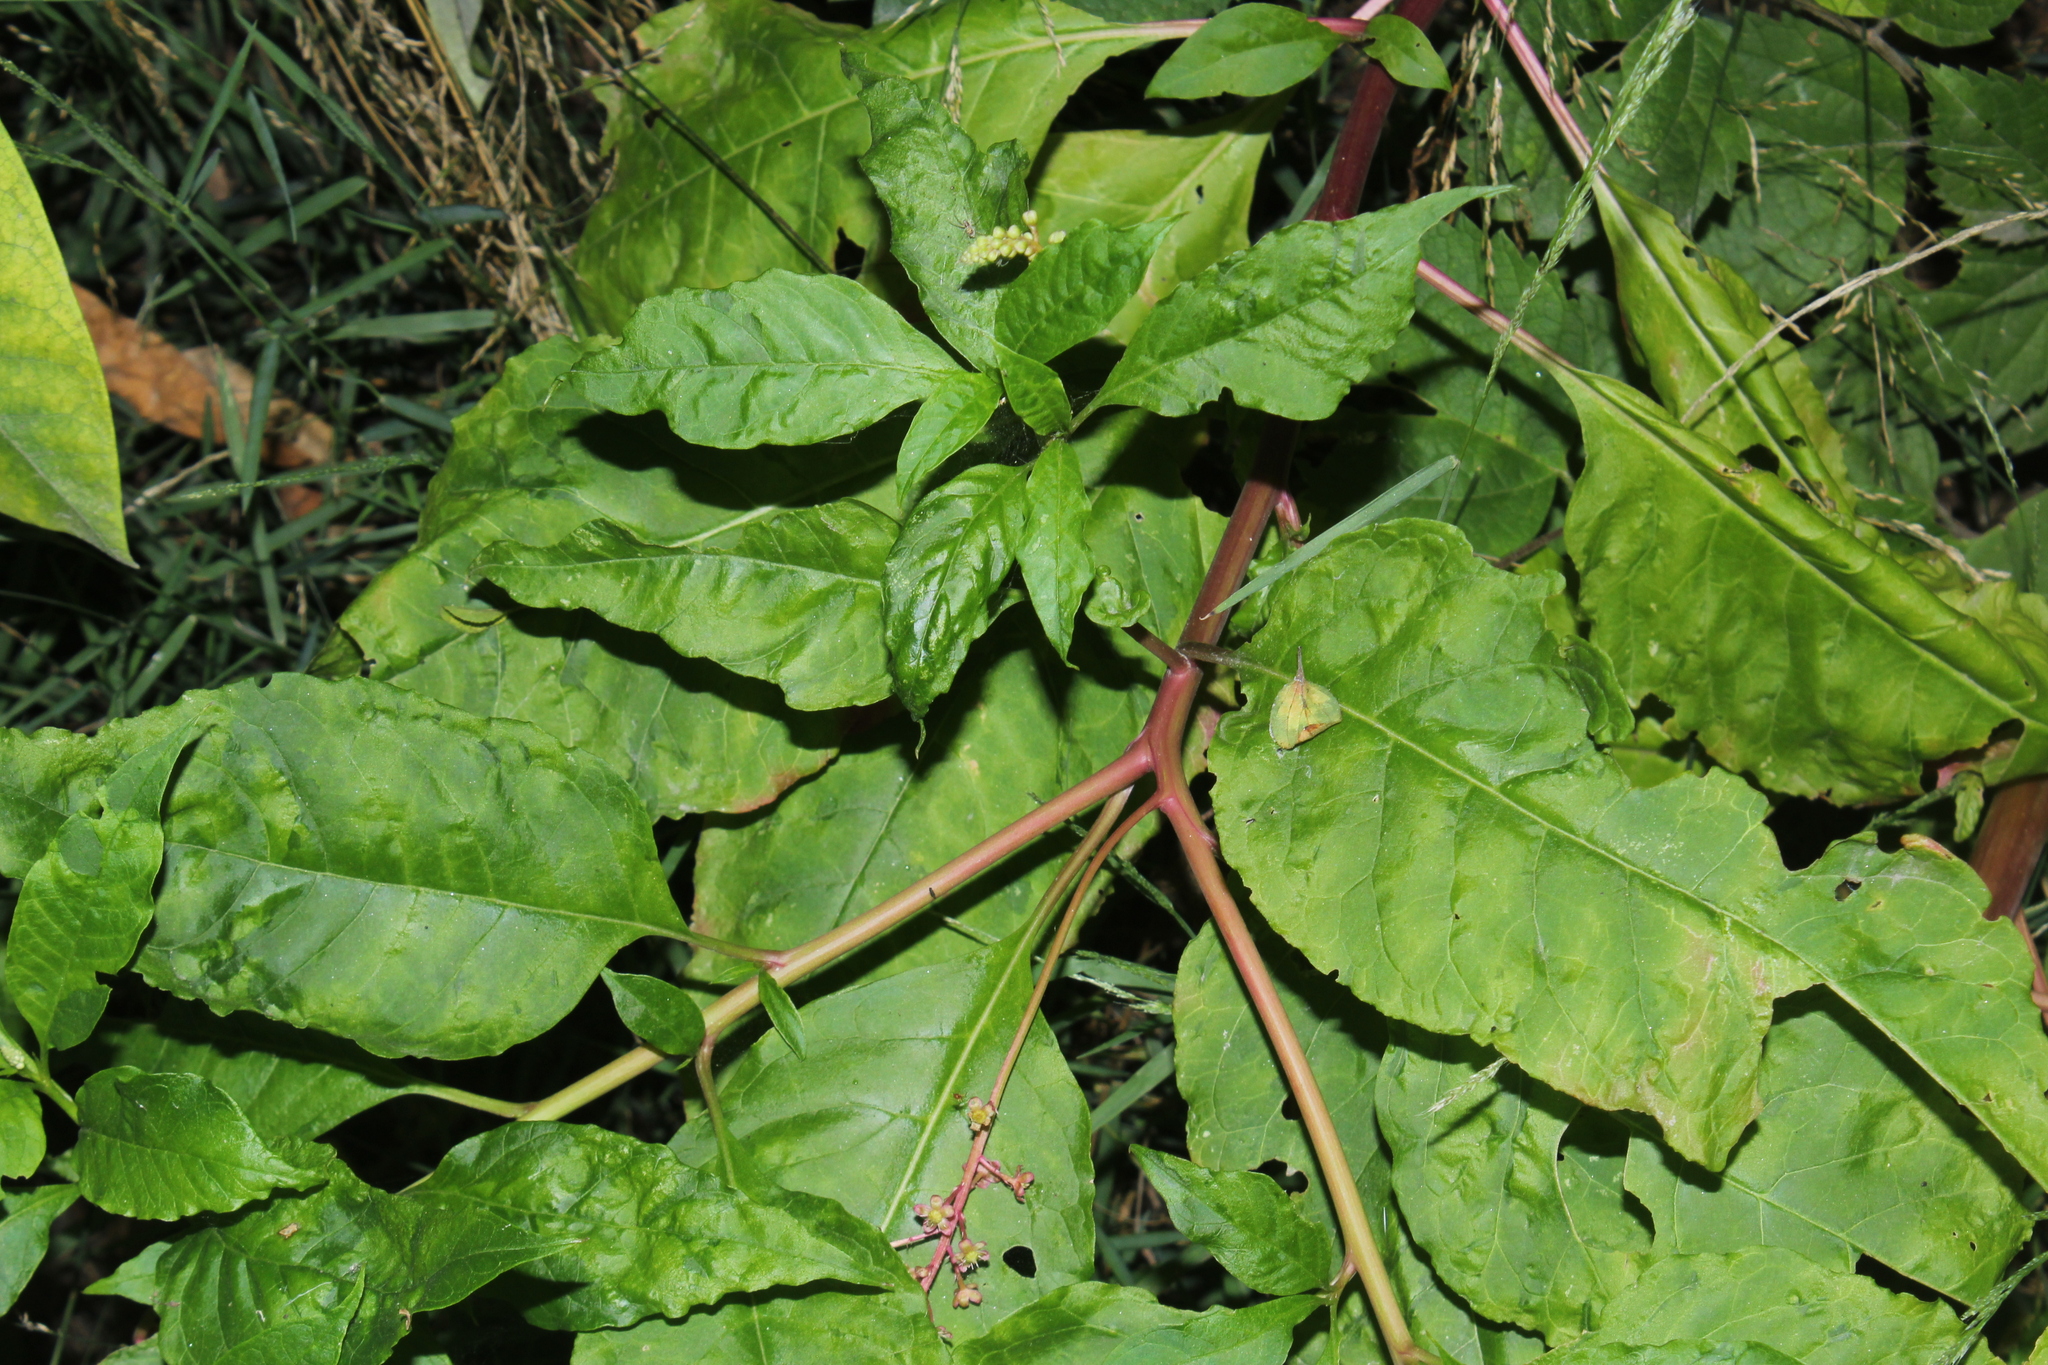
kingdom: Viruses
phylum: Pisuviricota
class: Stelpaviricetes
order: Patatavirales
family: Potyviridae
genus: Potyvirus
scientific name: Potyvirus Pokeweed mosaic virus
